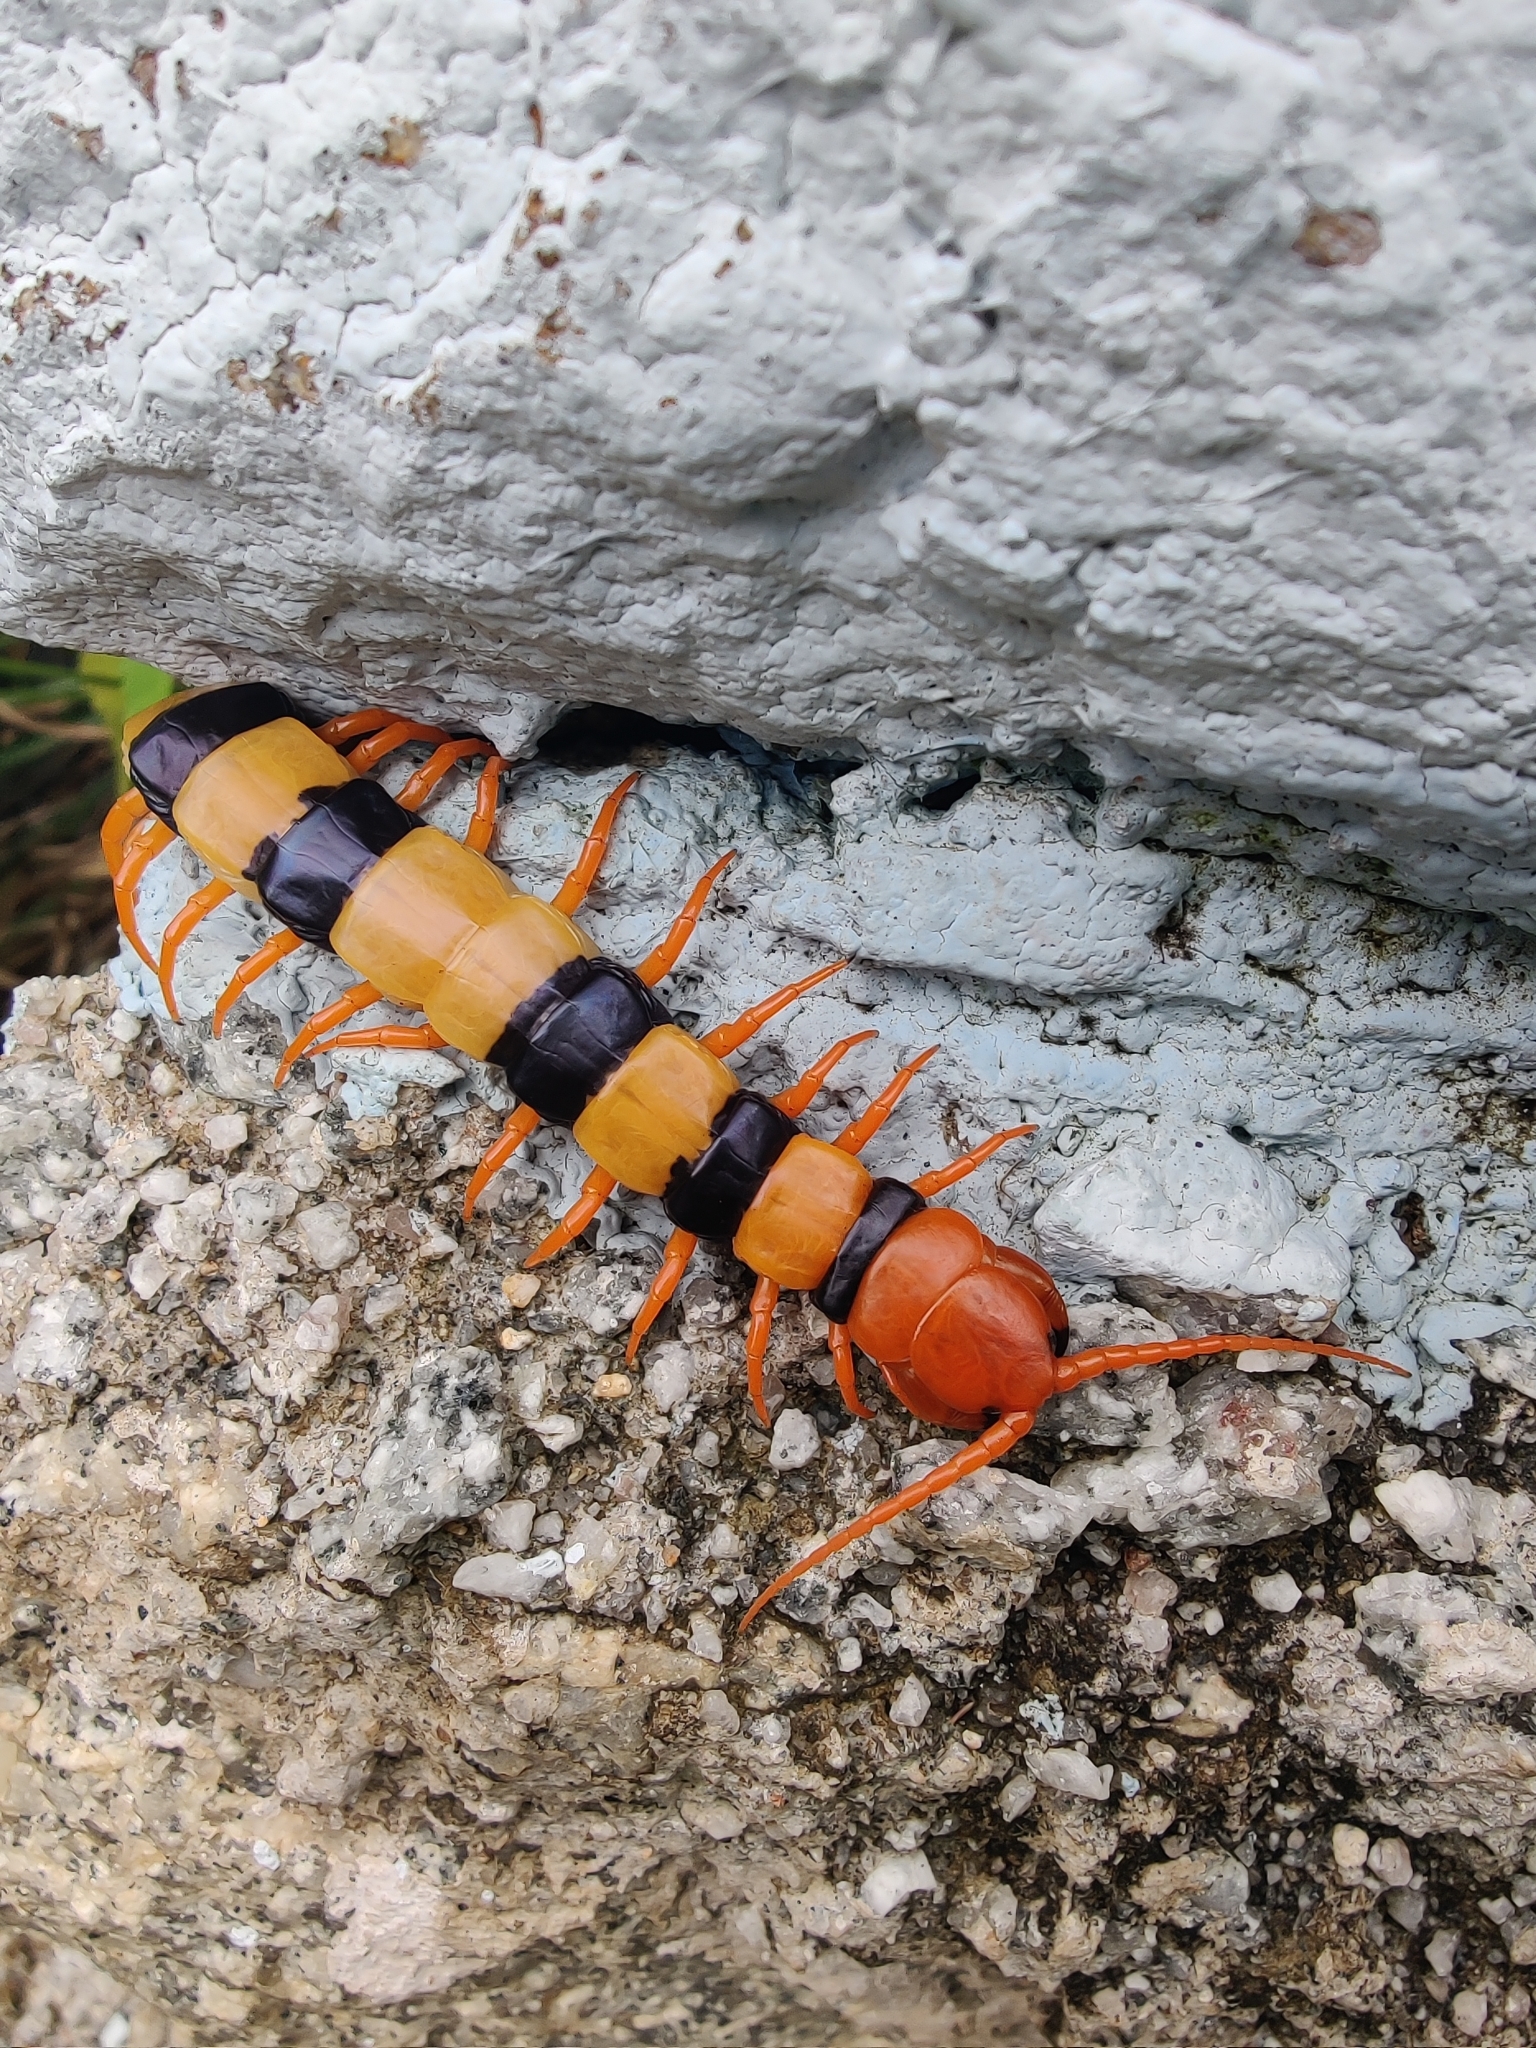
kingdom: Animalia
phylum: Arthropoda
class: Chilopoda
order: Scolopendromorpha
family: Scolopendridae
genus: Scolopendra
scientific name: Scolopendra hardwickei
